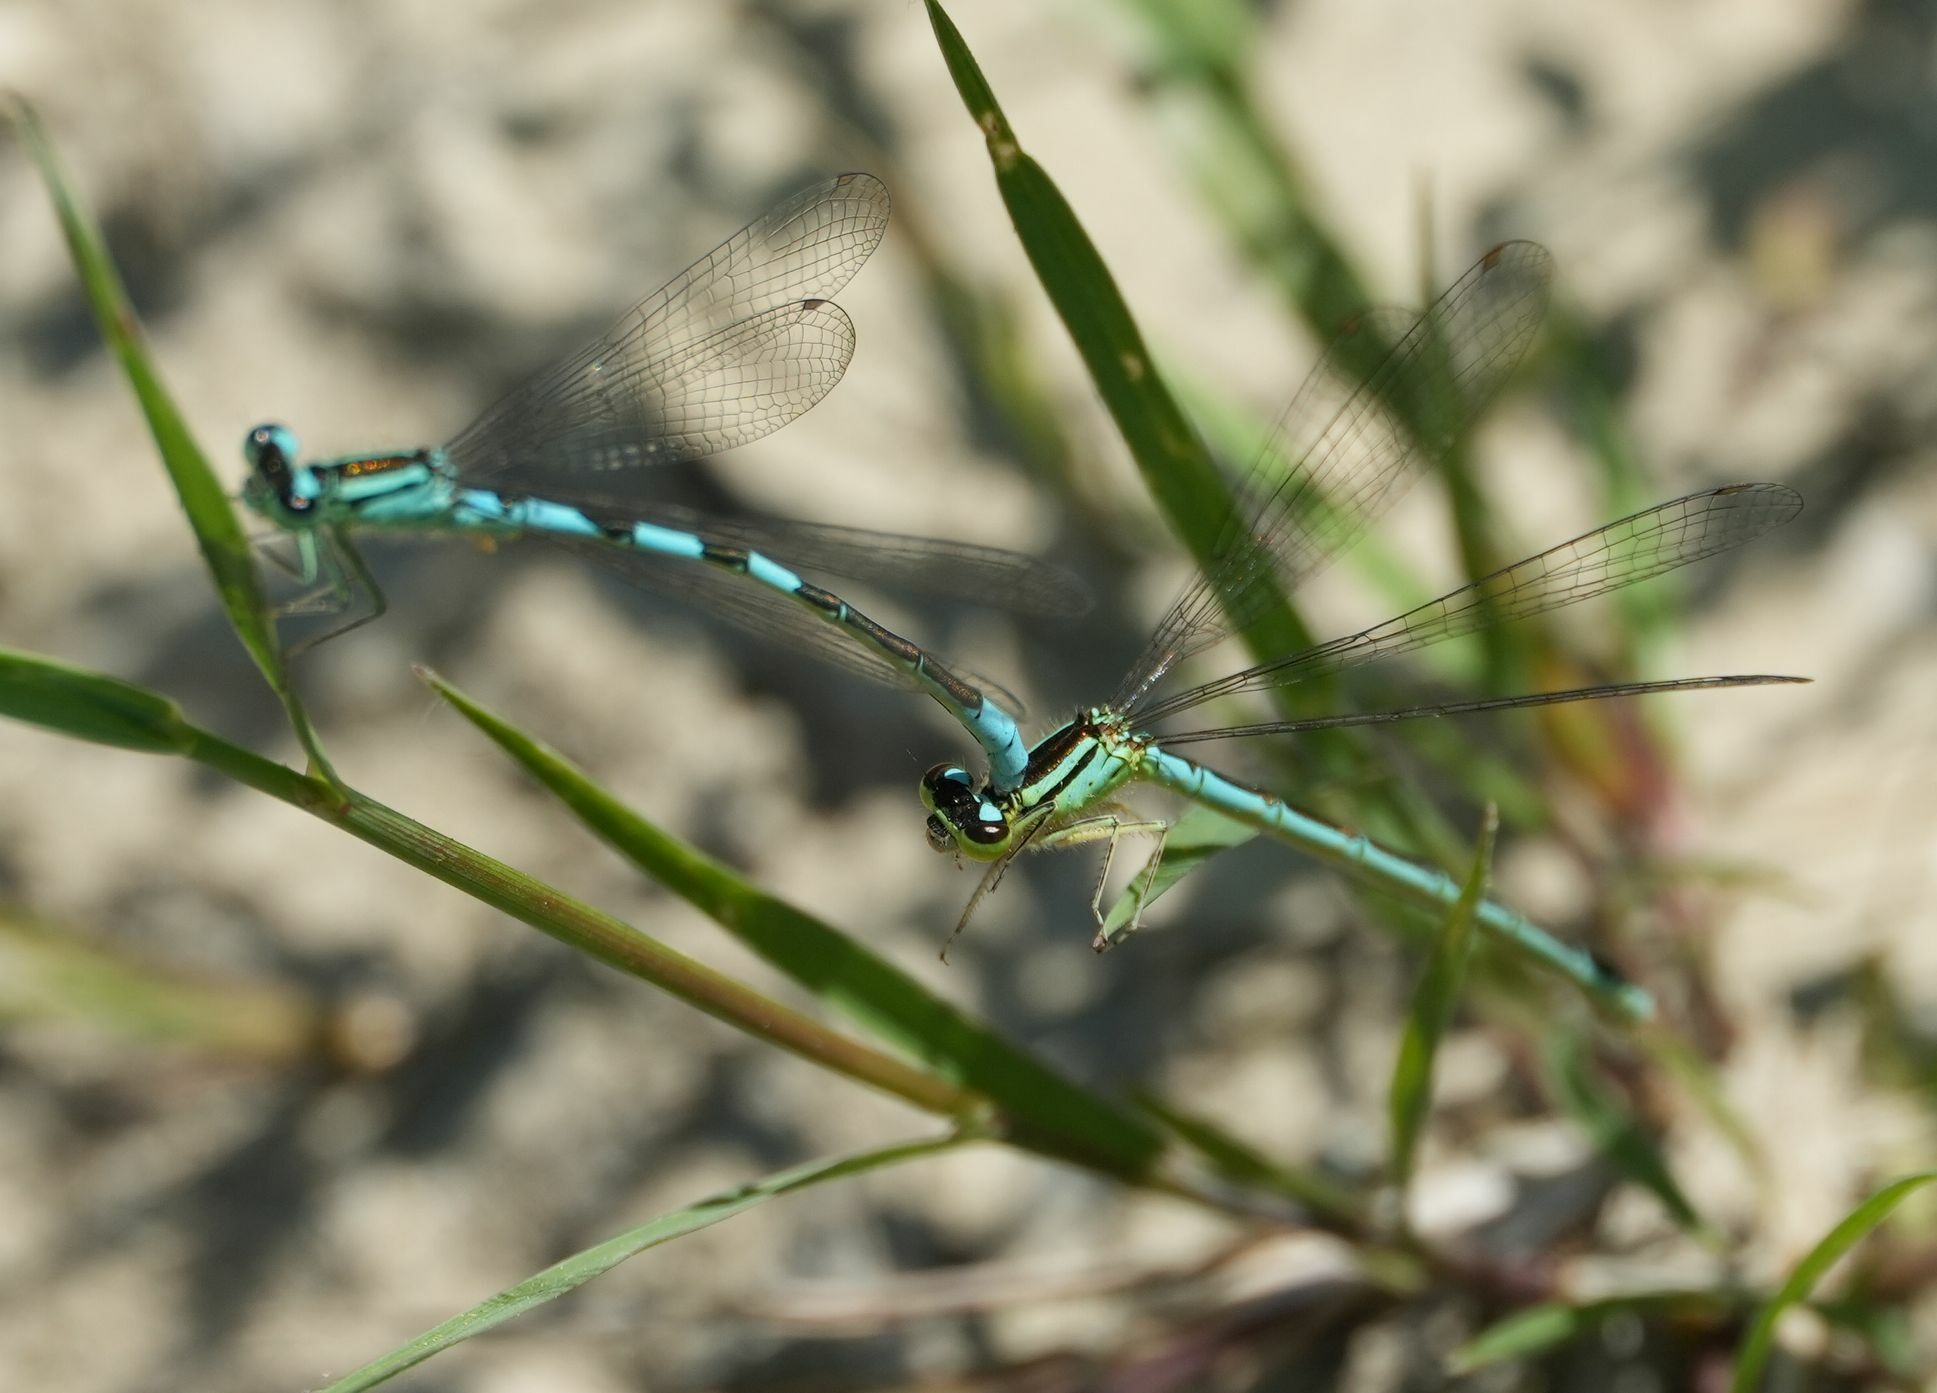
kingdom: Animalia
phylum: Arthropoda
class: Insecta
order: Odonata
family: Coenagrionidae
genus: Coenagrion
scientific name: Coenagrion resolutum
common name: Taiga bluet
